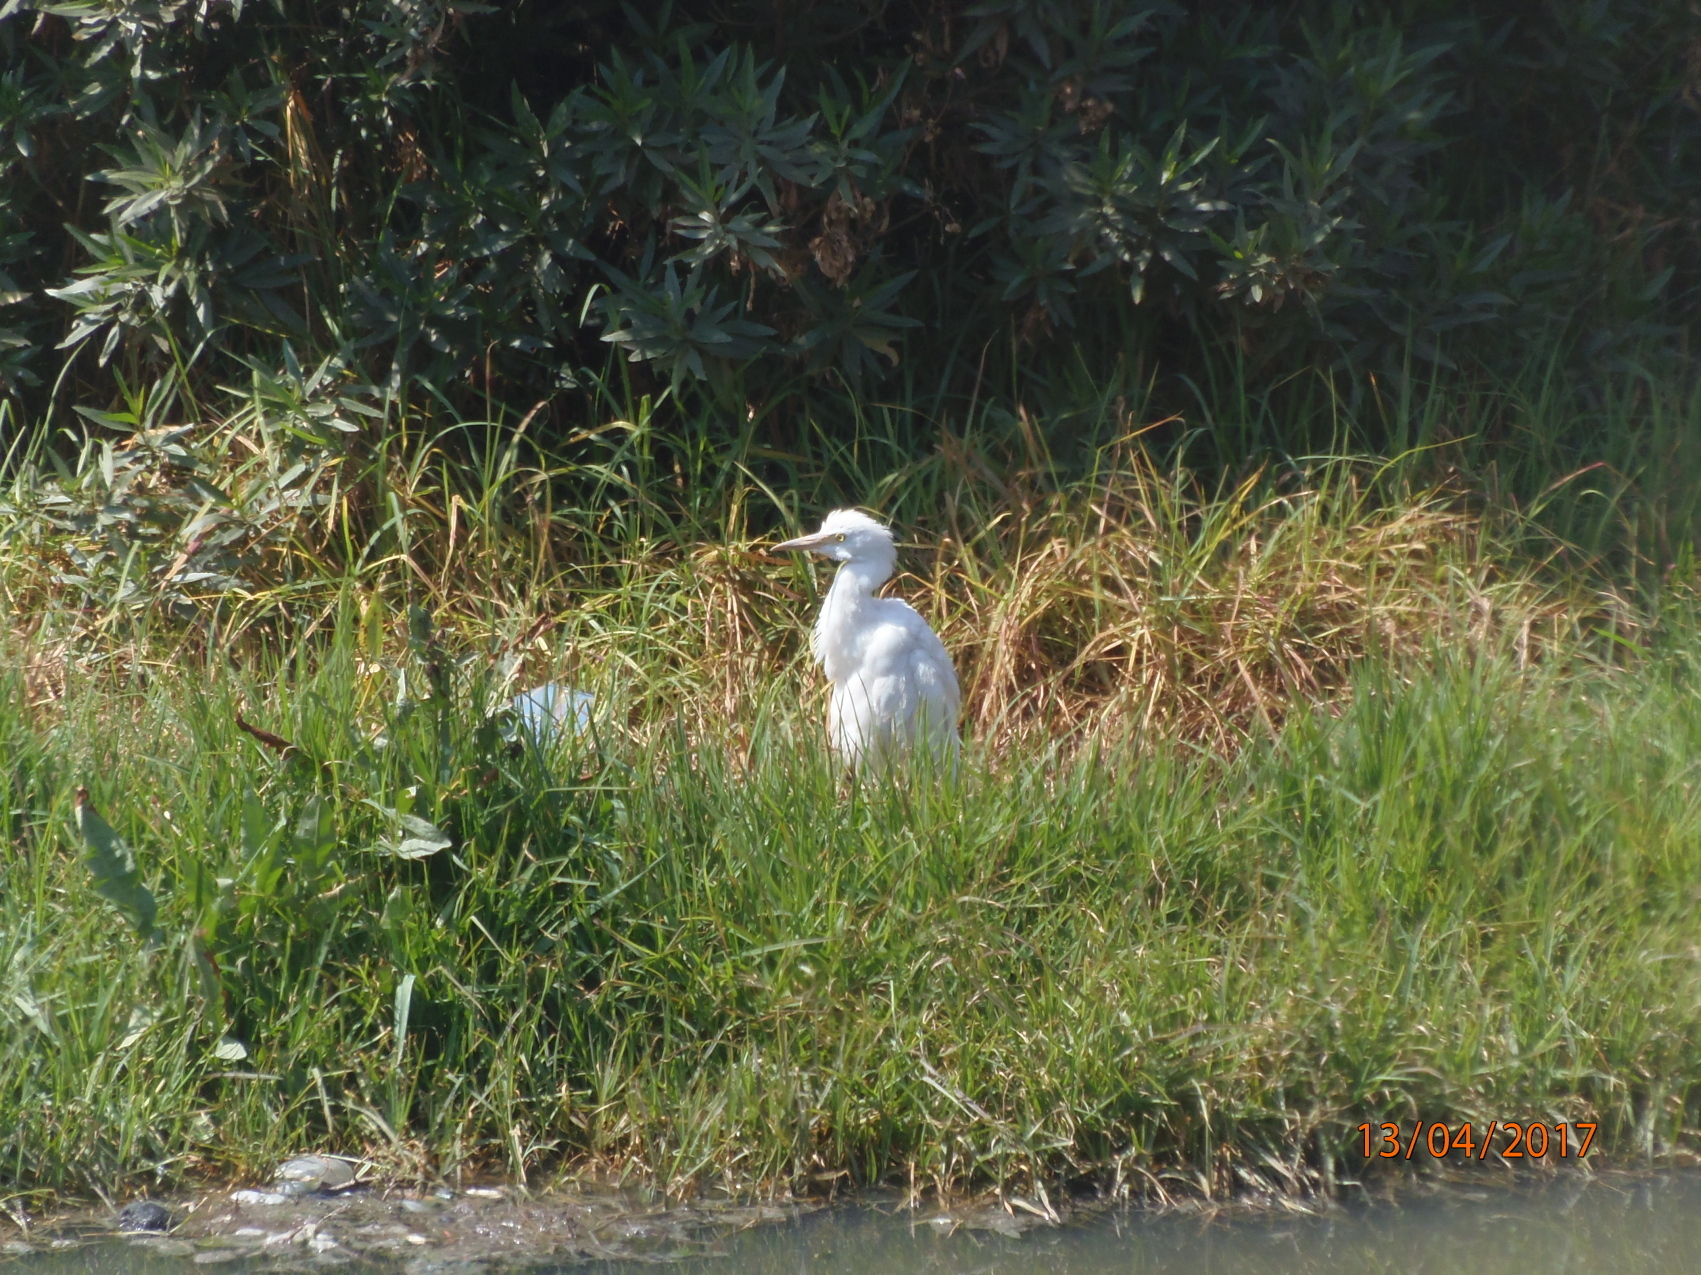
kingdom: Animalia
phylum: Chordata
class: Aves
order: Pelecaniformes
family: Ardeidae
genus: Bubulcus
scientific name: Bubulcus ibis
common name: Cattle egret
